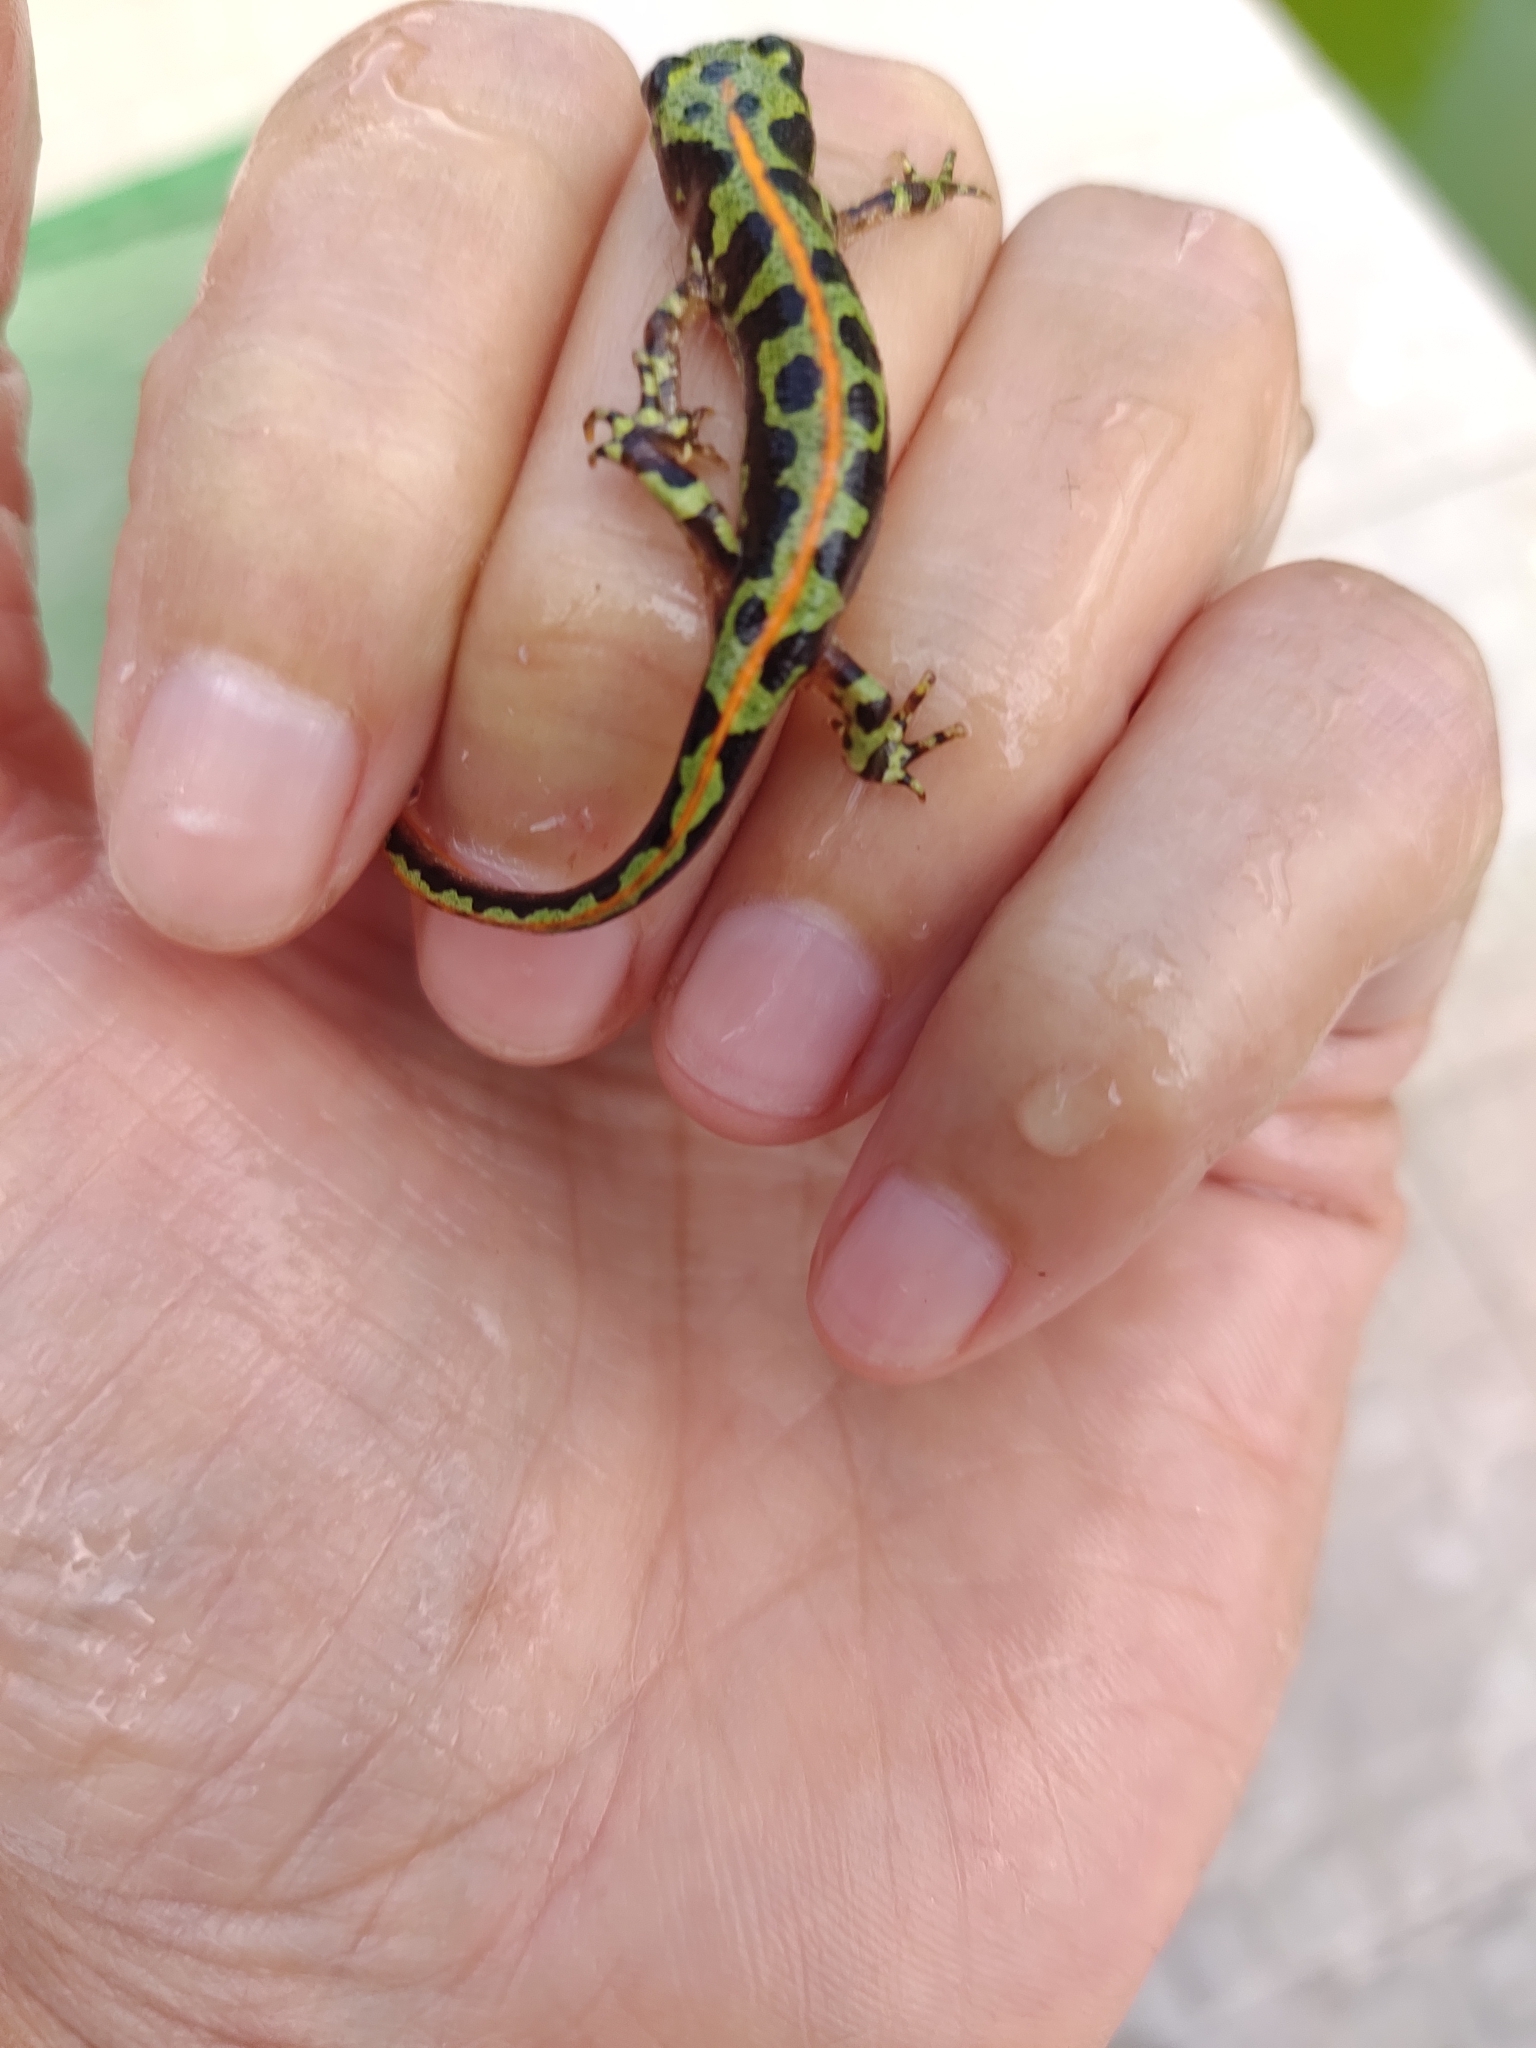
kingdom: Animalia
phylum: Chordata
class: Amphibia
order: Caudata
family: Salamandridae
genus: Triturus
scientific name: Triturus marmoratus
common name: Marbled newt
